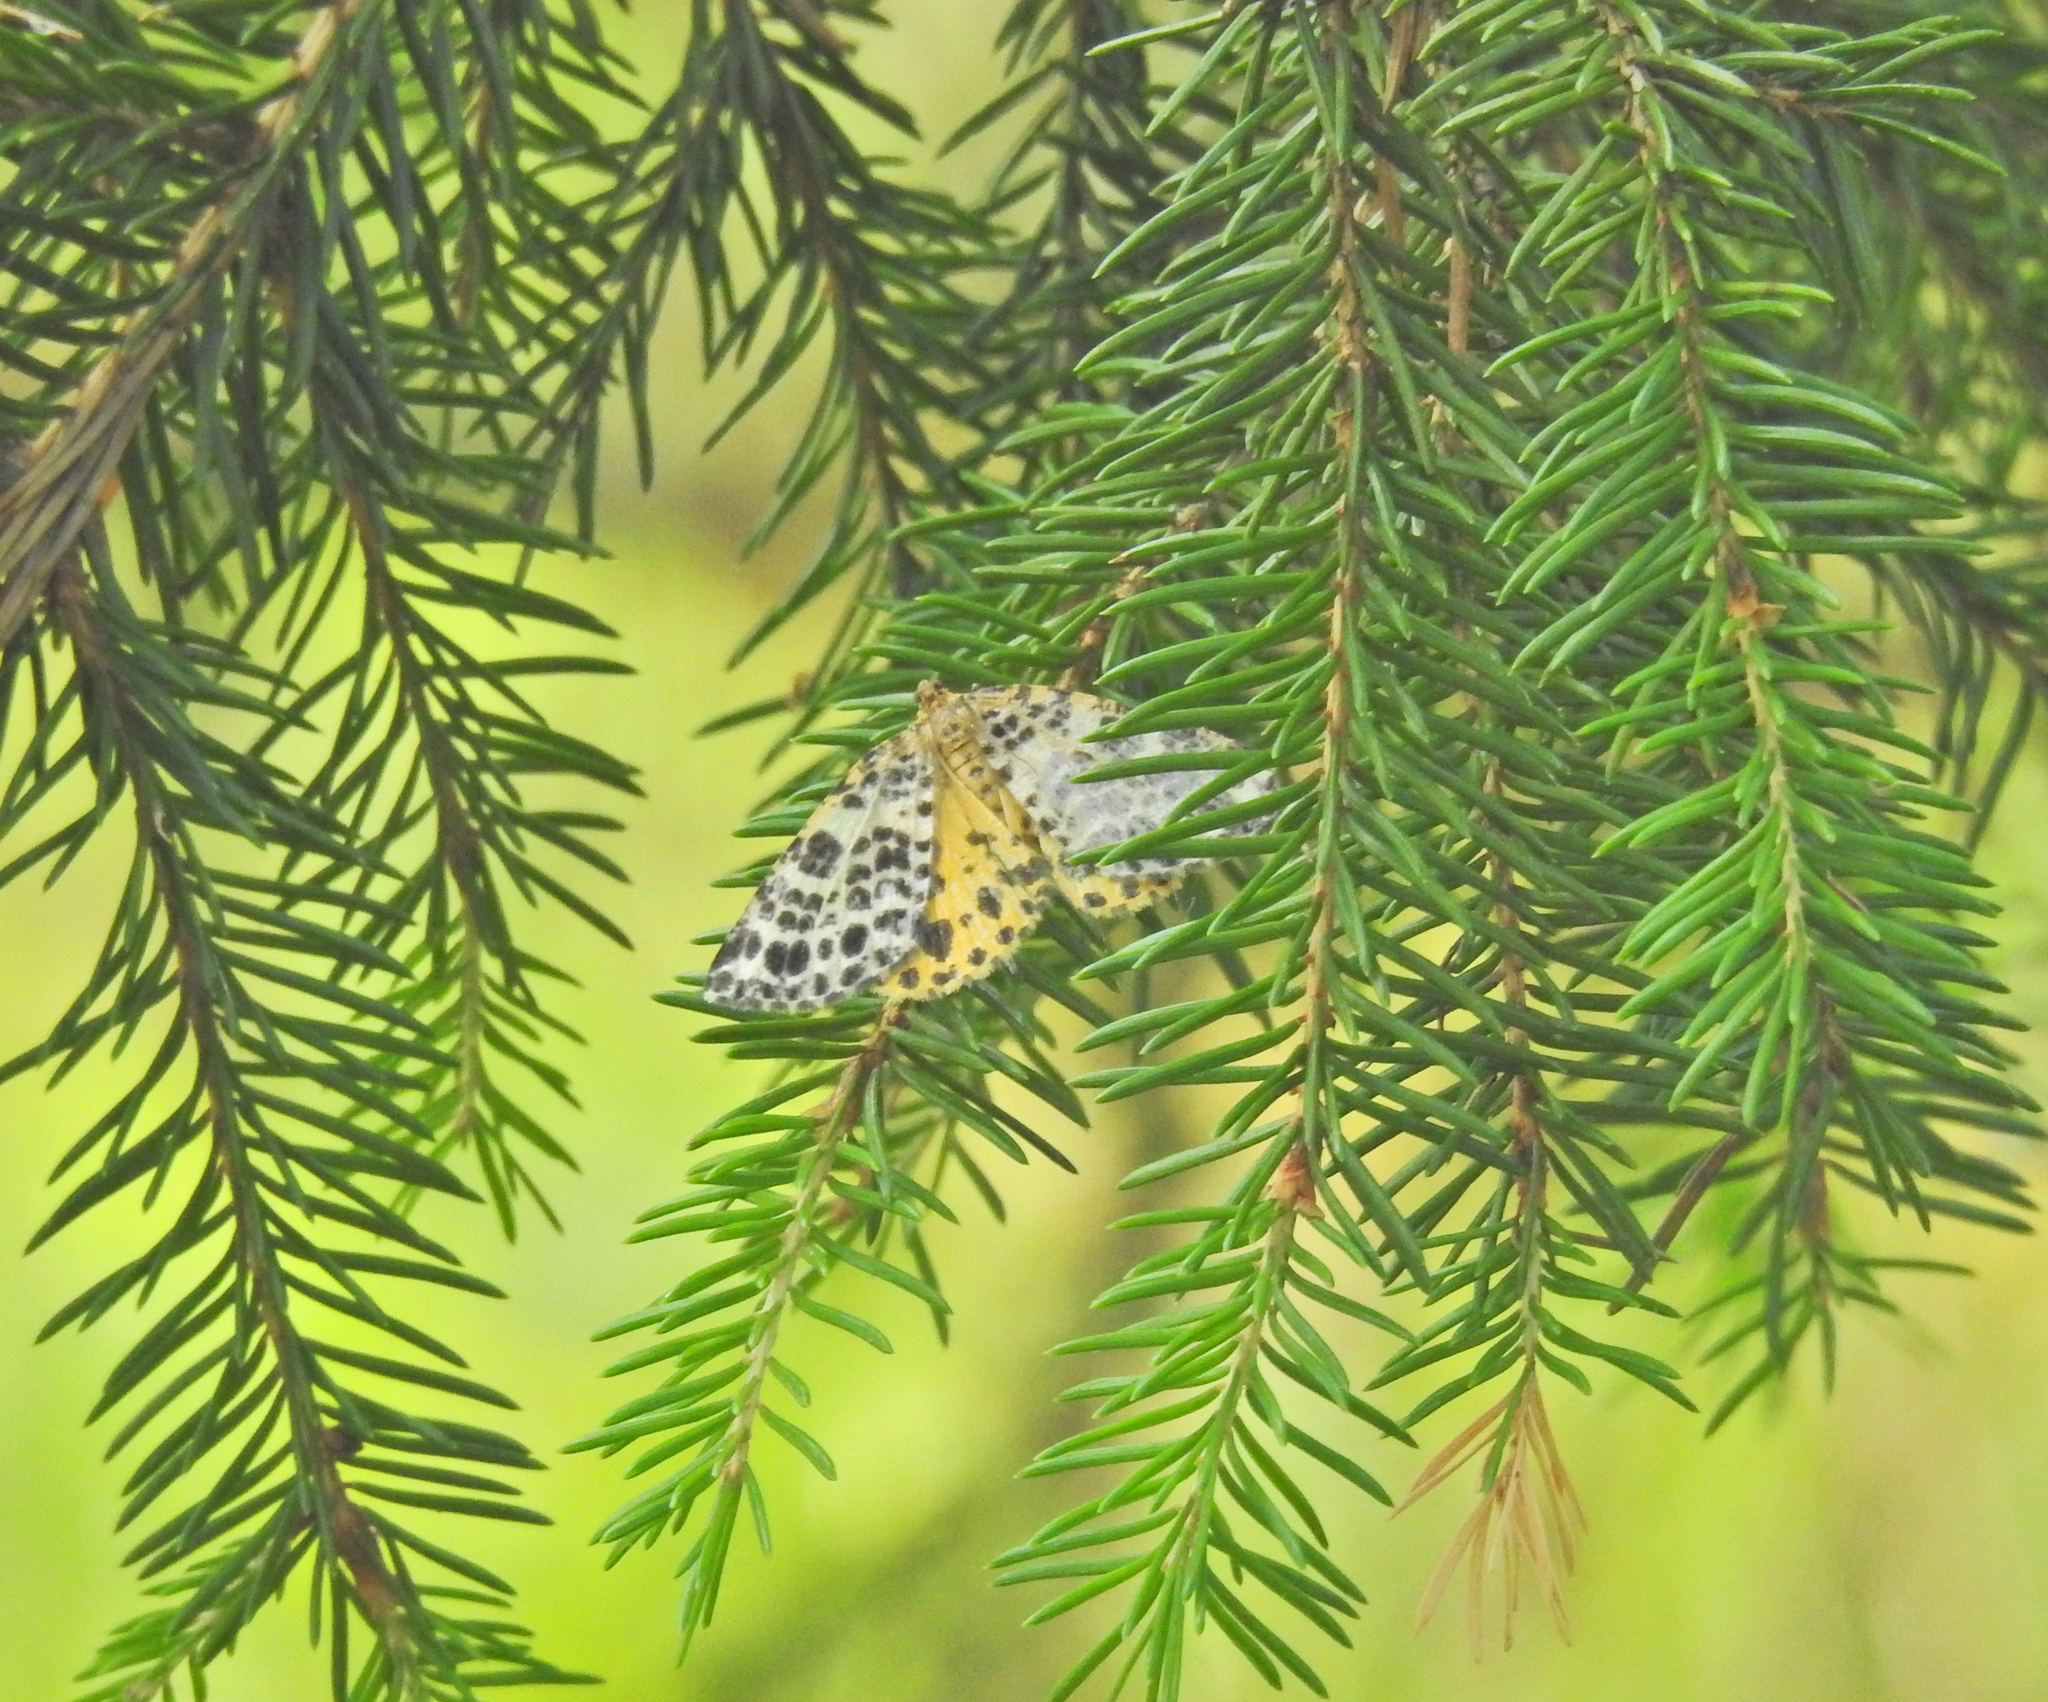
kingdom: Animalia
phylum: Arthropoda
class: Insecta
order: Lepidoptera
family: Geometridae
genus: Arichanna
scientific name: Arichanna melanaria
